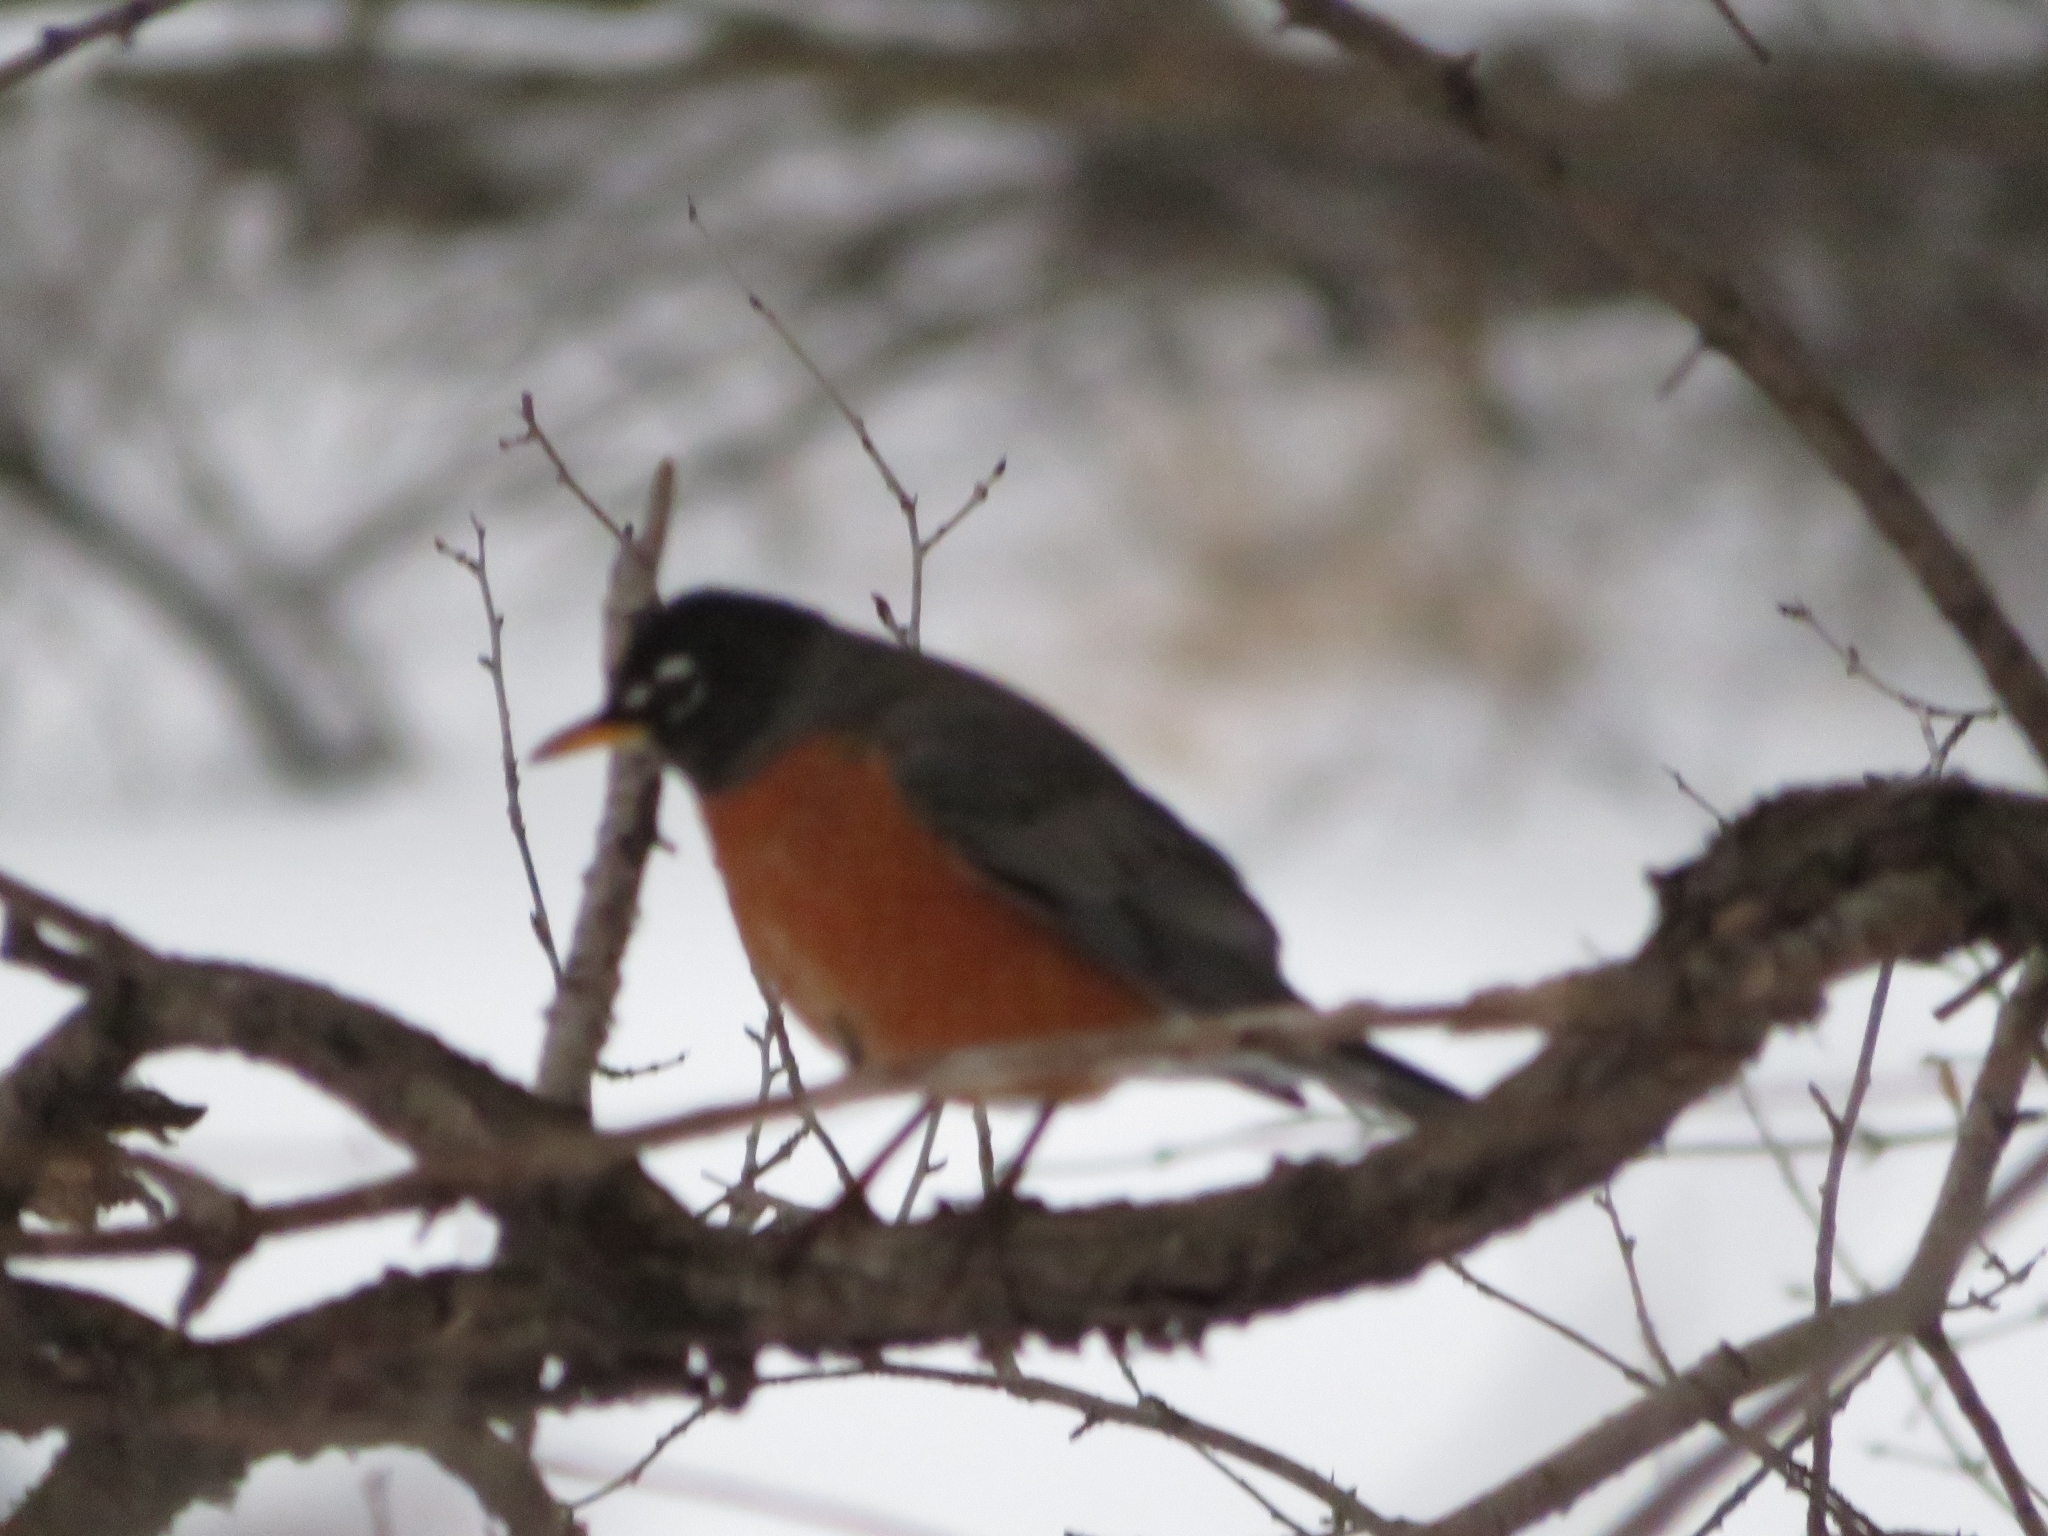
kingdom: Animalia
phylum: Chordata
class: Aves
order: Passeriformes
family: Turdidae
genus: Turdus
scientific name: Turdus migratorius
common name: American robin
